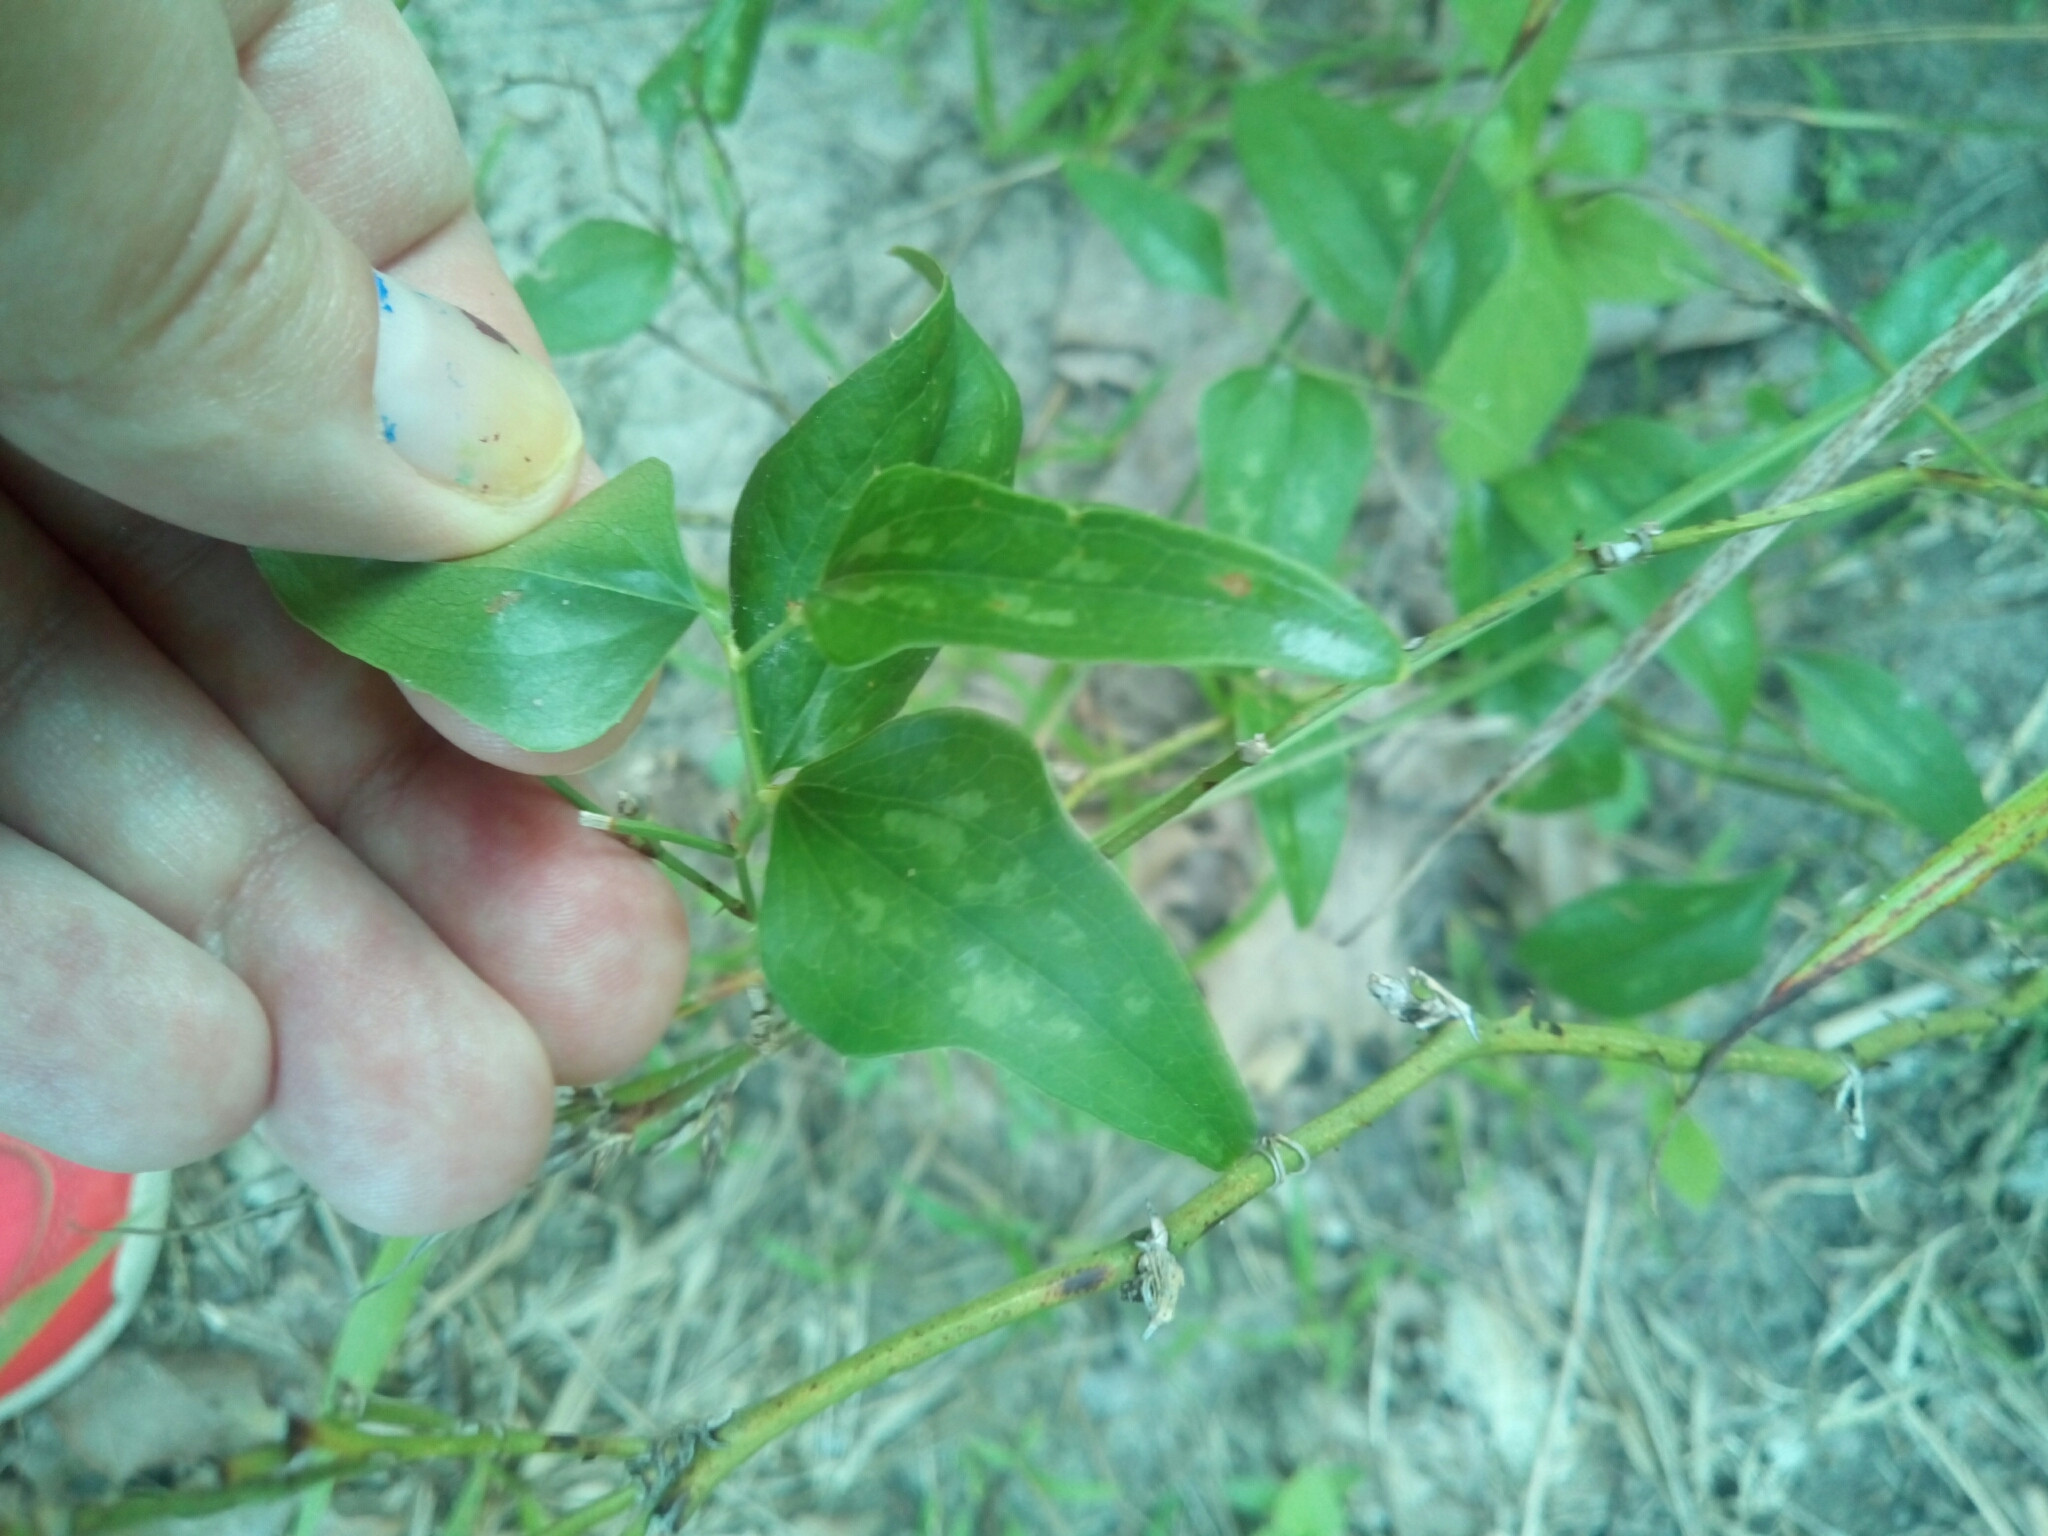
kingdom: Plantae
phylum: Tracheophyta
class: Liliopsida
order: Liliales
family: Smilacaceae
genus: Smilax
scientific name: Smilax bona-nox
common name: Catbrier
